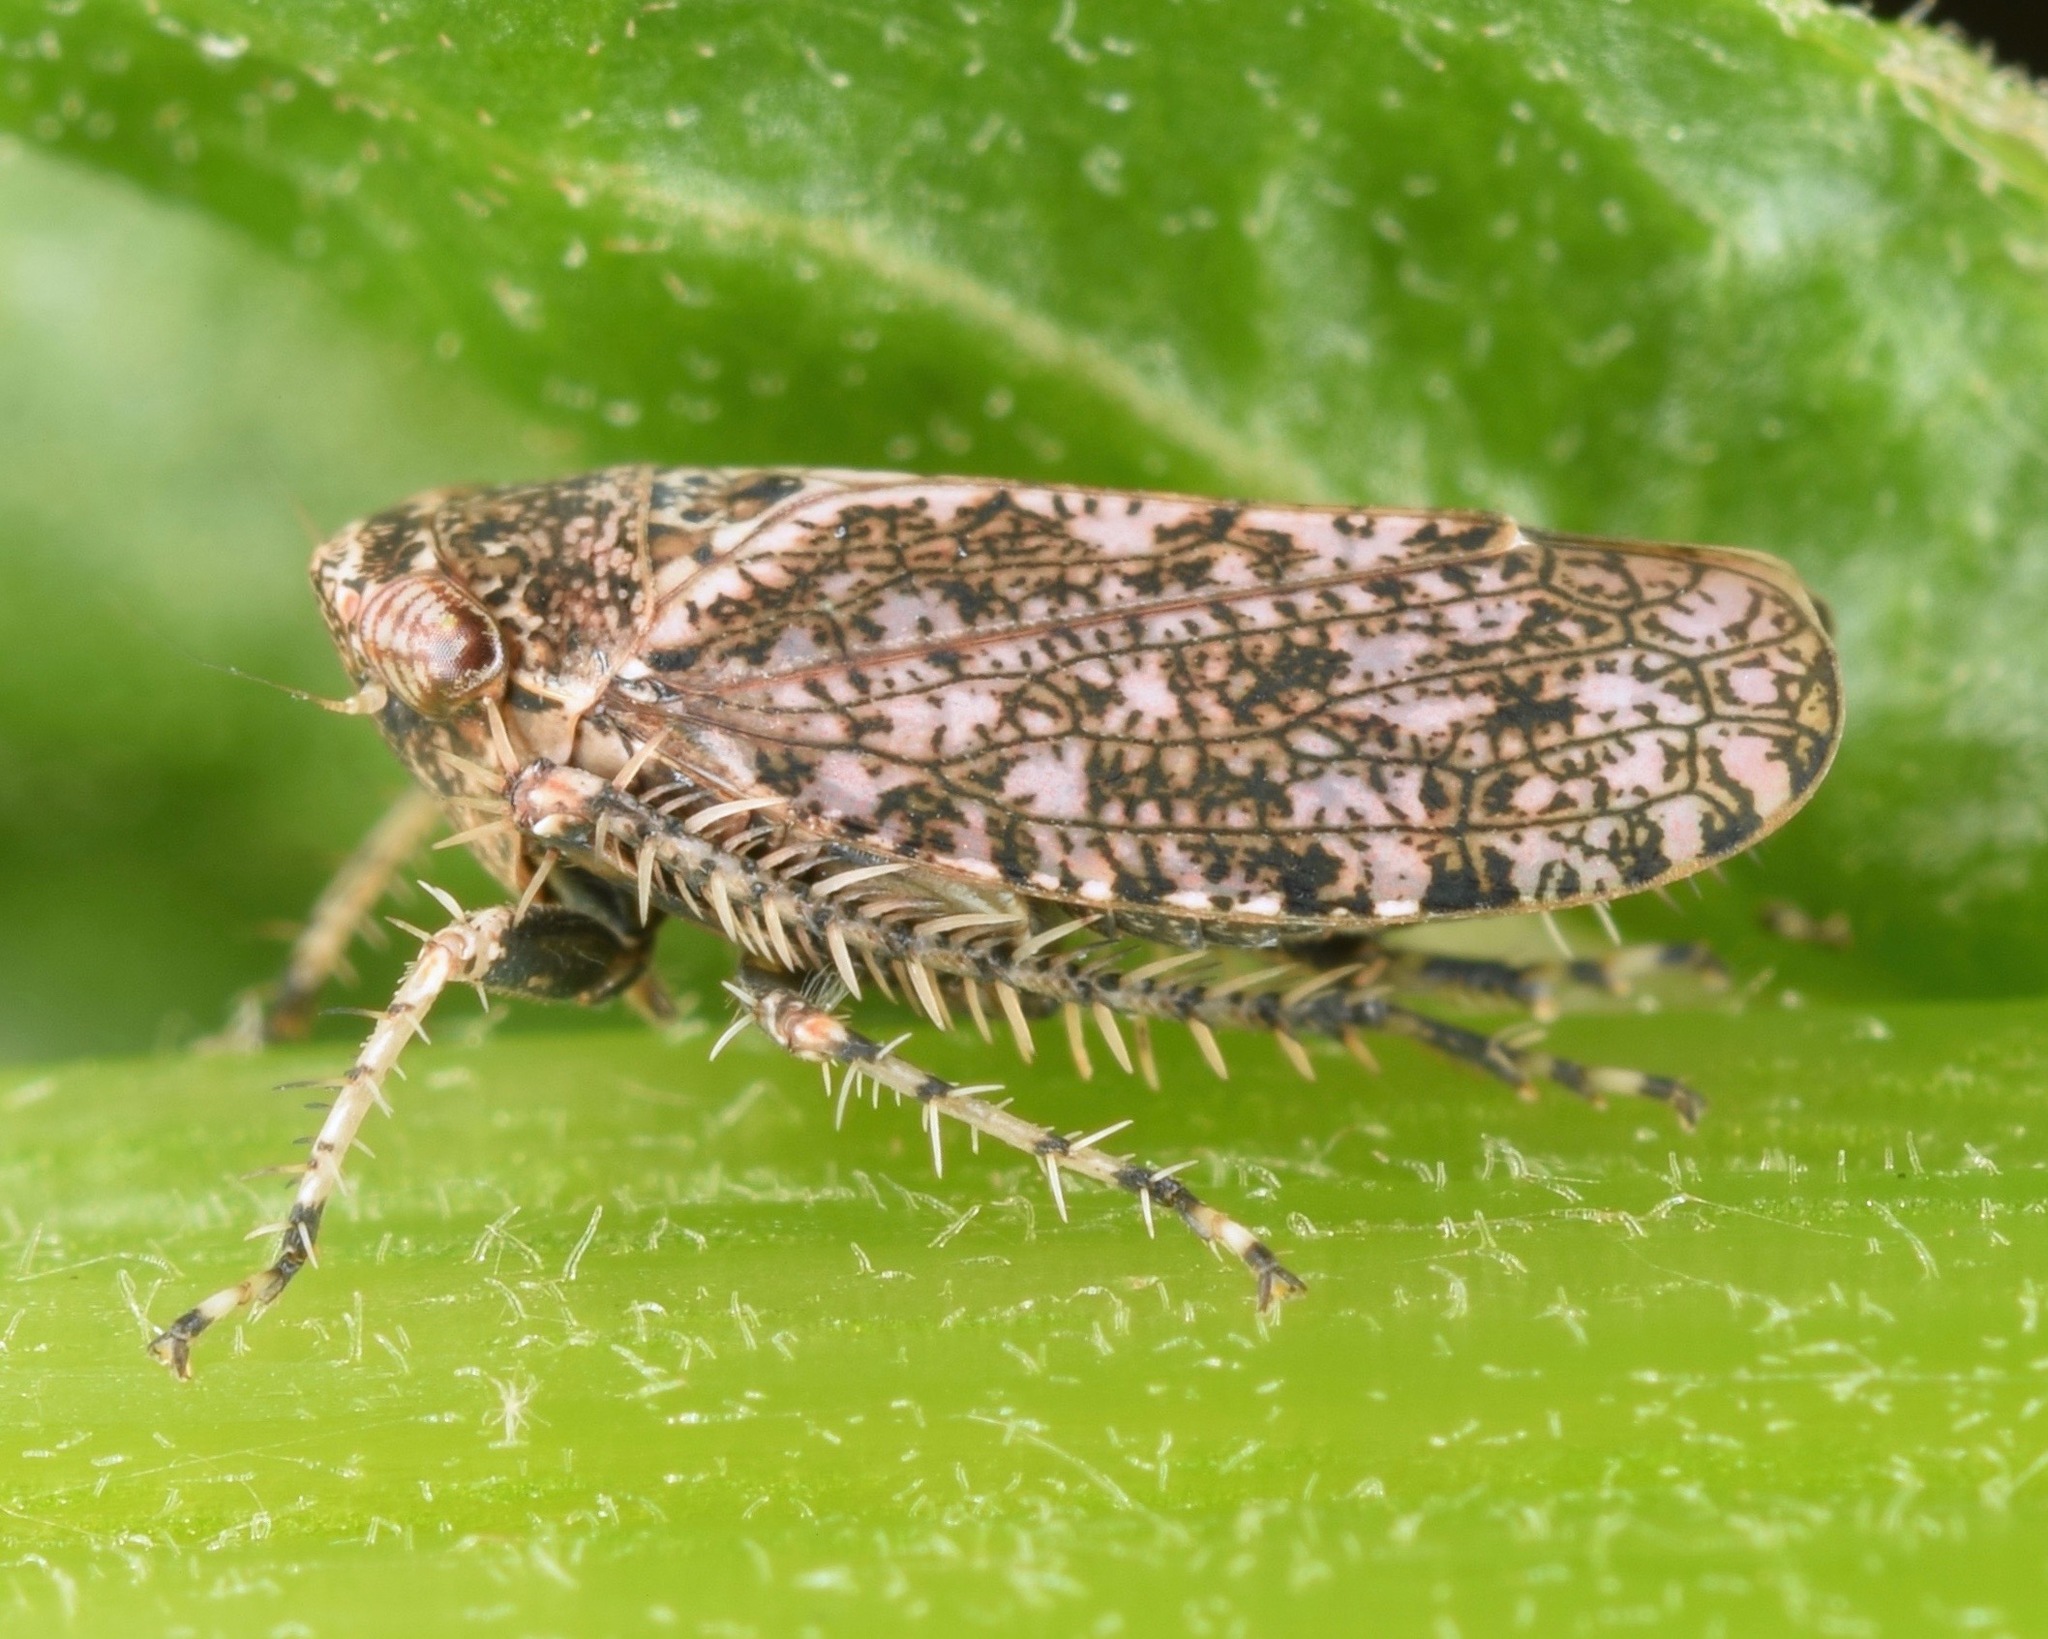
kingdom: Animalia
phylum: Arthropoda
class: Insecta
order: Hemiptera
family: Cicadellidae
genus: Texananus
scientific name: Texananus decorus
